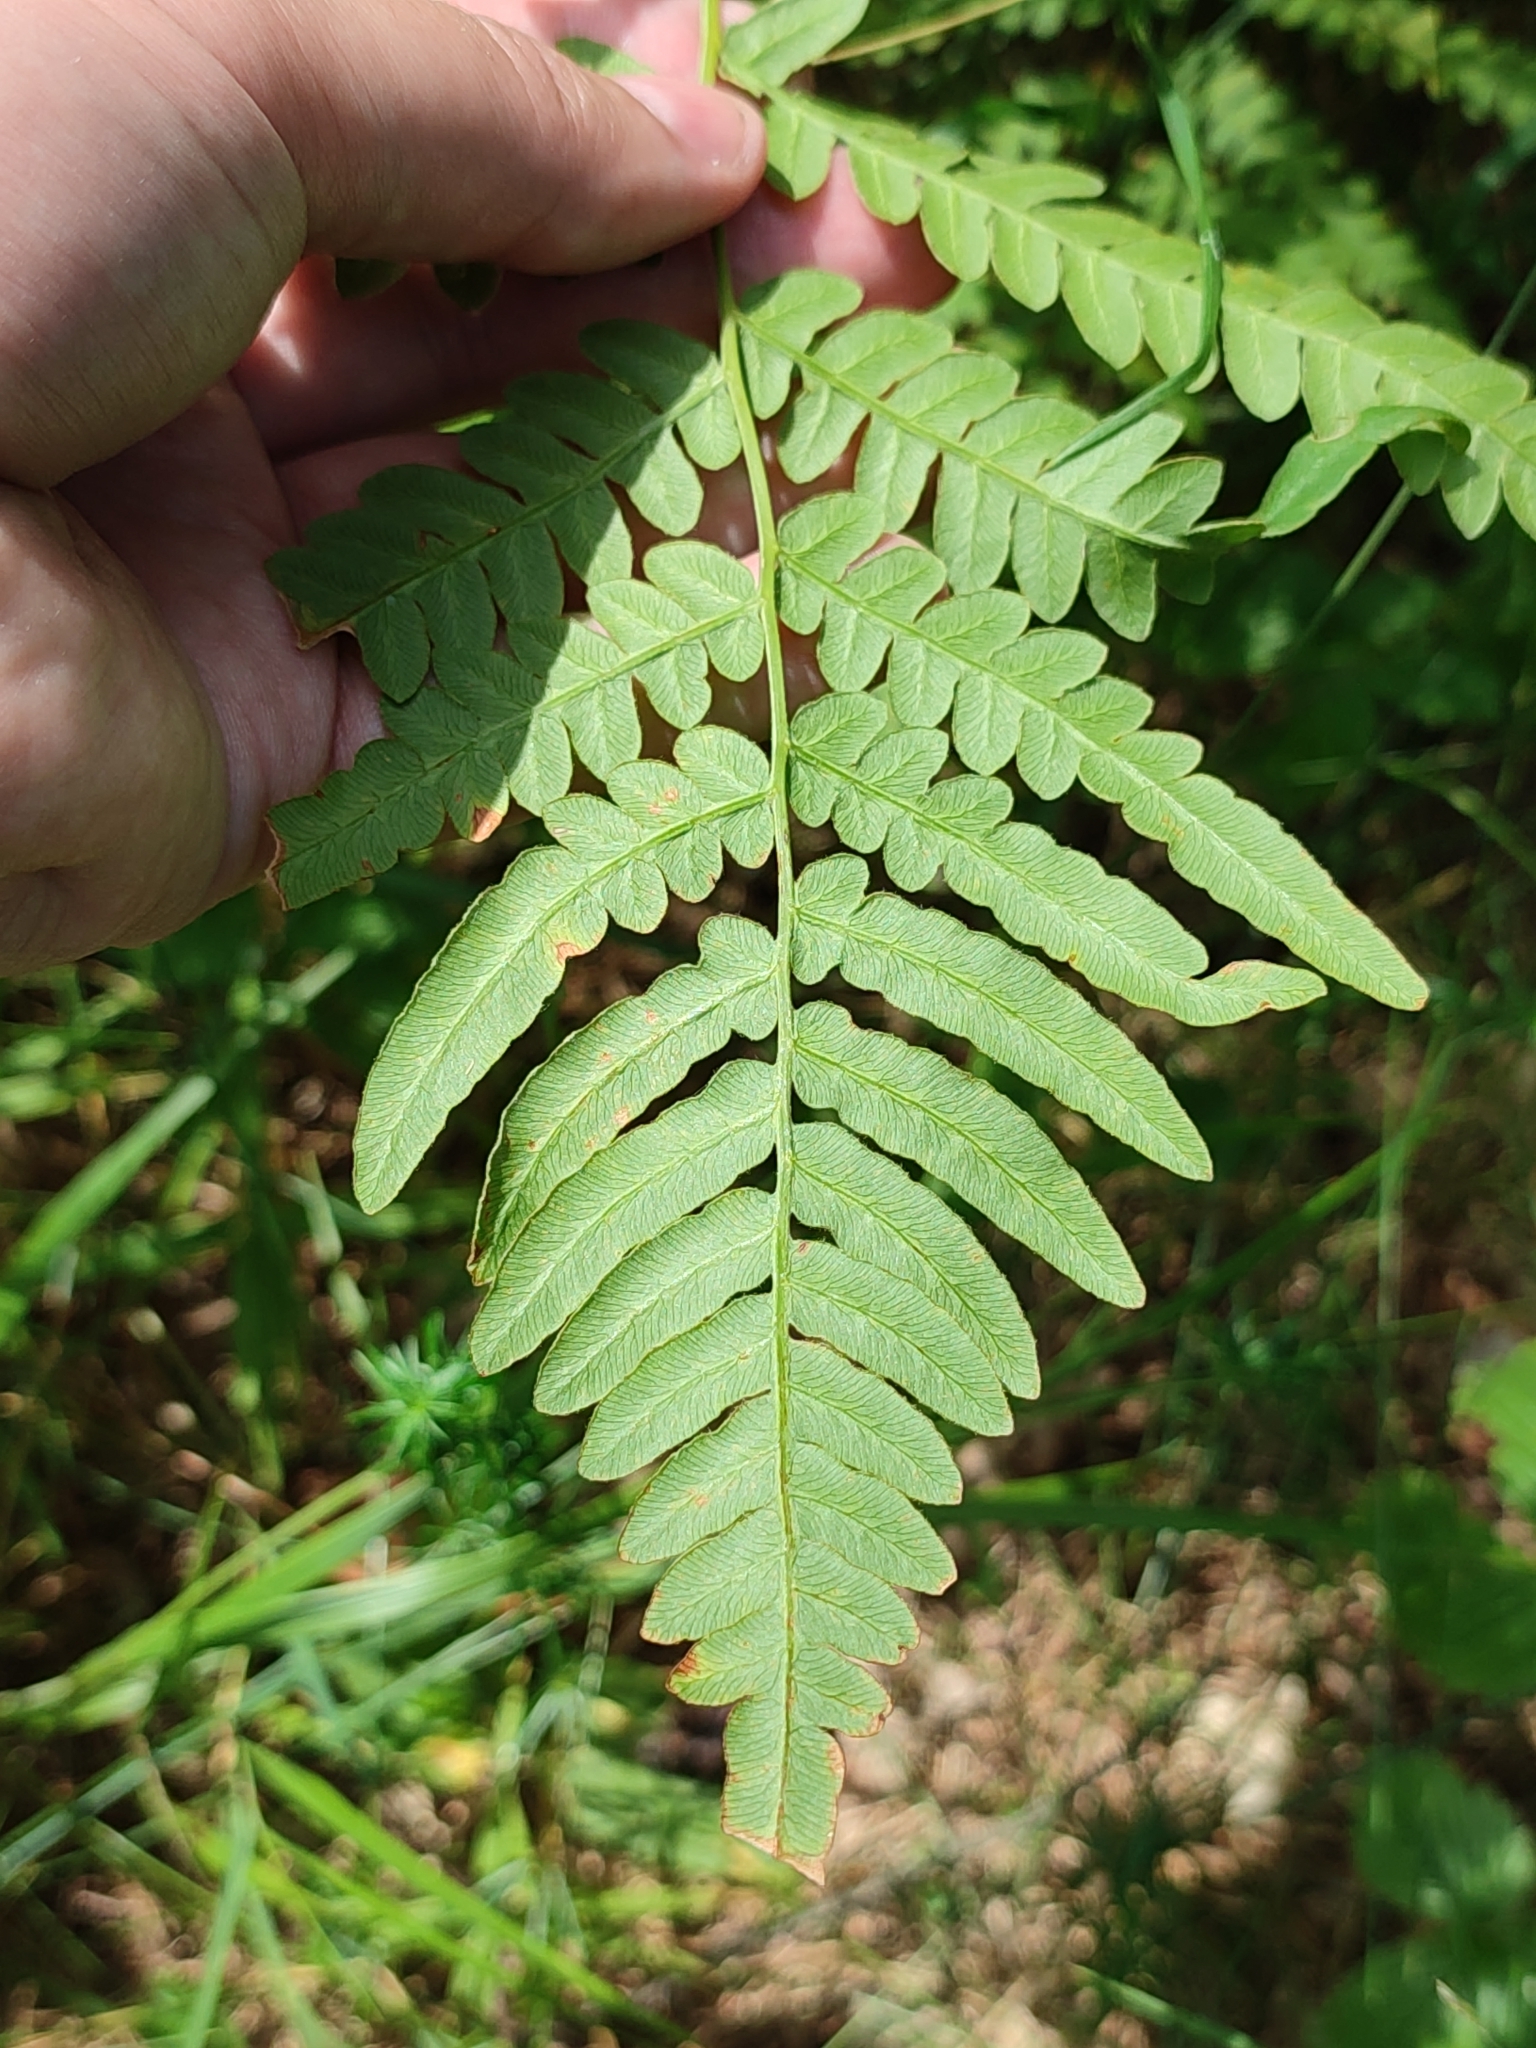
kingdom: Plantae
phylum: Tracheophyta
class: Polypodiopsida
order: Polypodiales
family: Dennstaedtiaceae
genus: Pteridium
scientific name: Pteridium aquilinum
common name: Bracken
